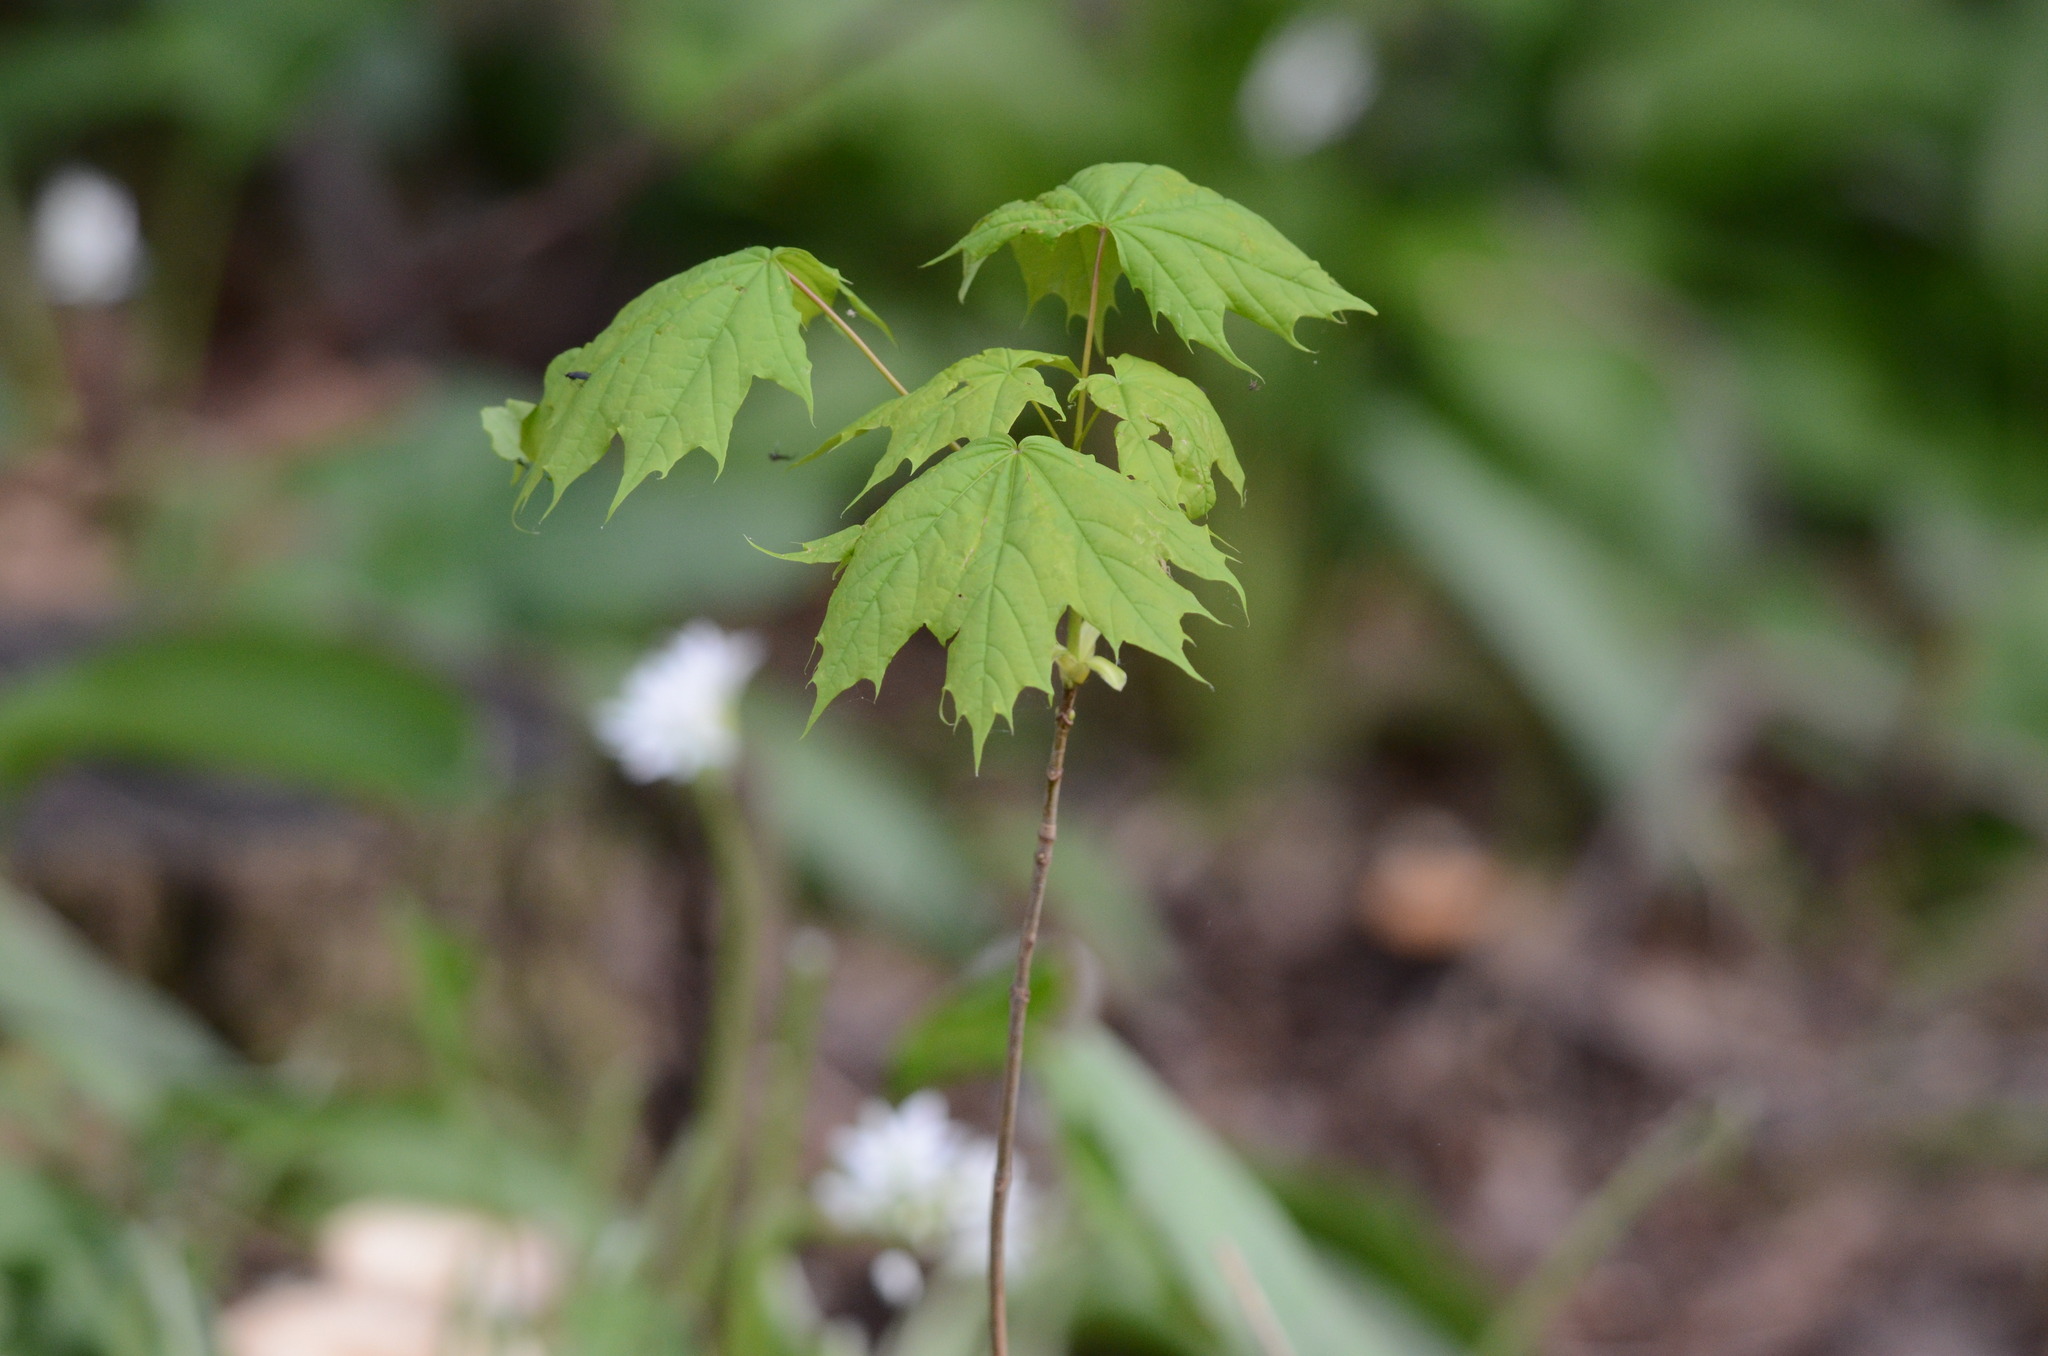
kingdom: Plantae
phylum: Tracheophyta
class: Magnoliopsida
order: Sapindales
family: Sapindaceae
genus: Acer
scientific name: Acer platanoides
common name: Norway maple
